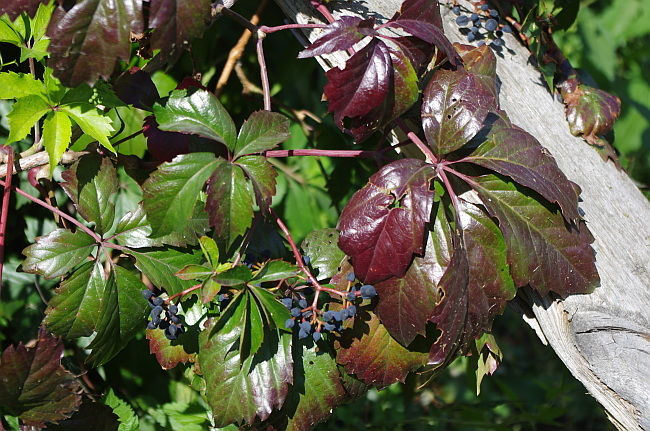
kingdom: Plantae
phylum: Tracheophyta
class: Magnoliopsida
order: Vitales
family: Vitaceae
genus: Parthenocissus
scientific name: Parthenocissus inserta
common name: False virginia-creeper
